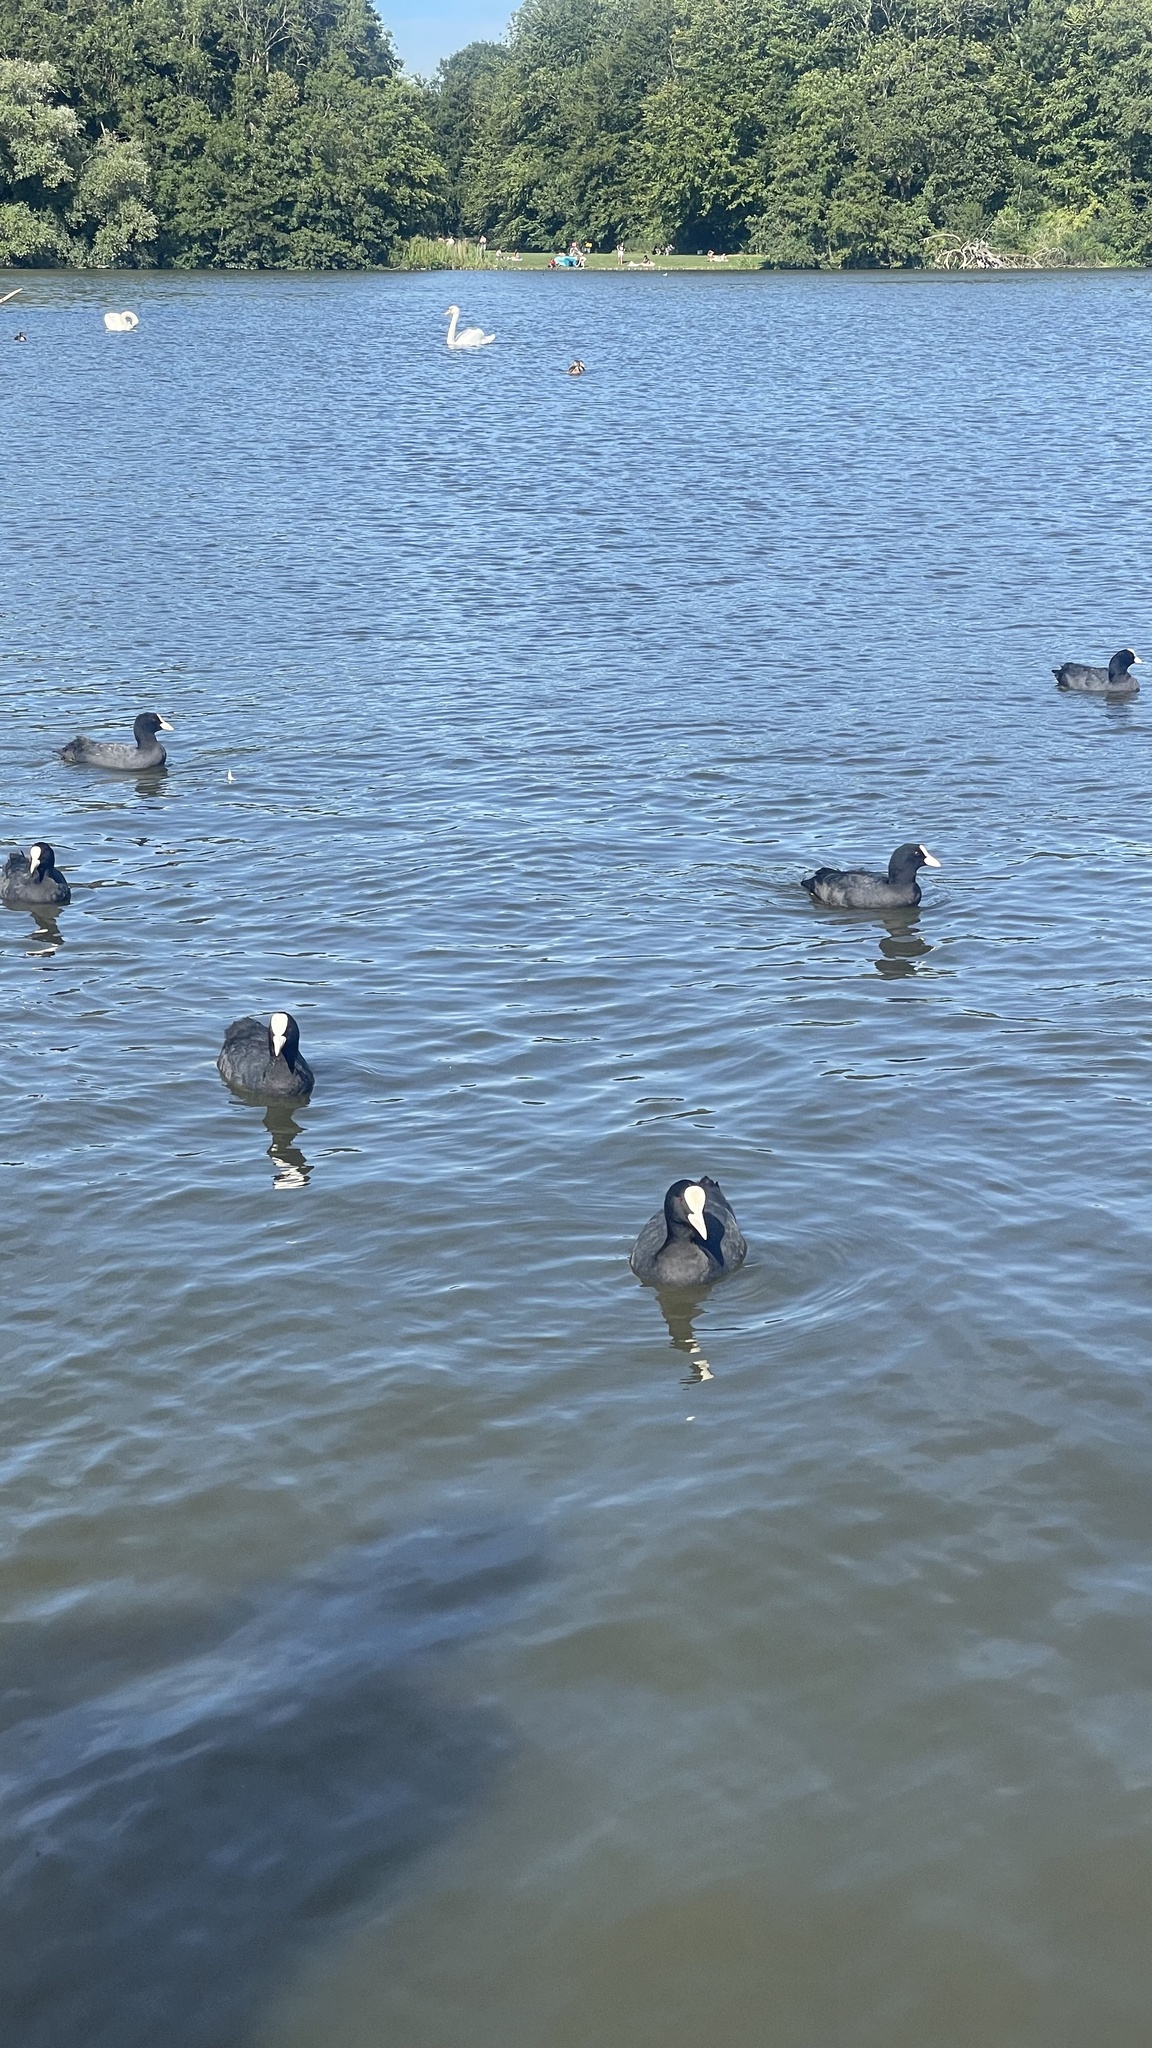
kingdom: Animalia
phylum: Chordata
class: Aves
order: Gruiformes
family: Rallidae
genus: Fulica
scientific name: Fulica atra
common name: Eurasian coot
